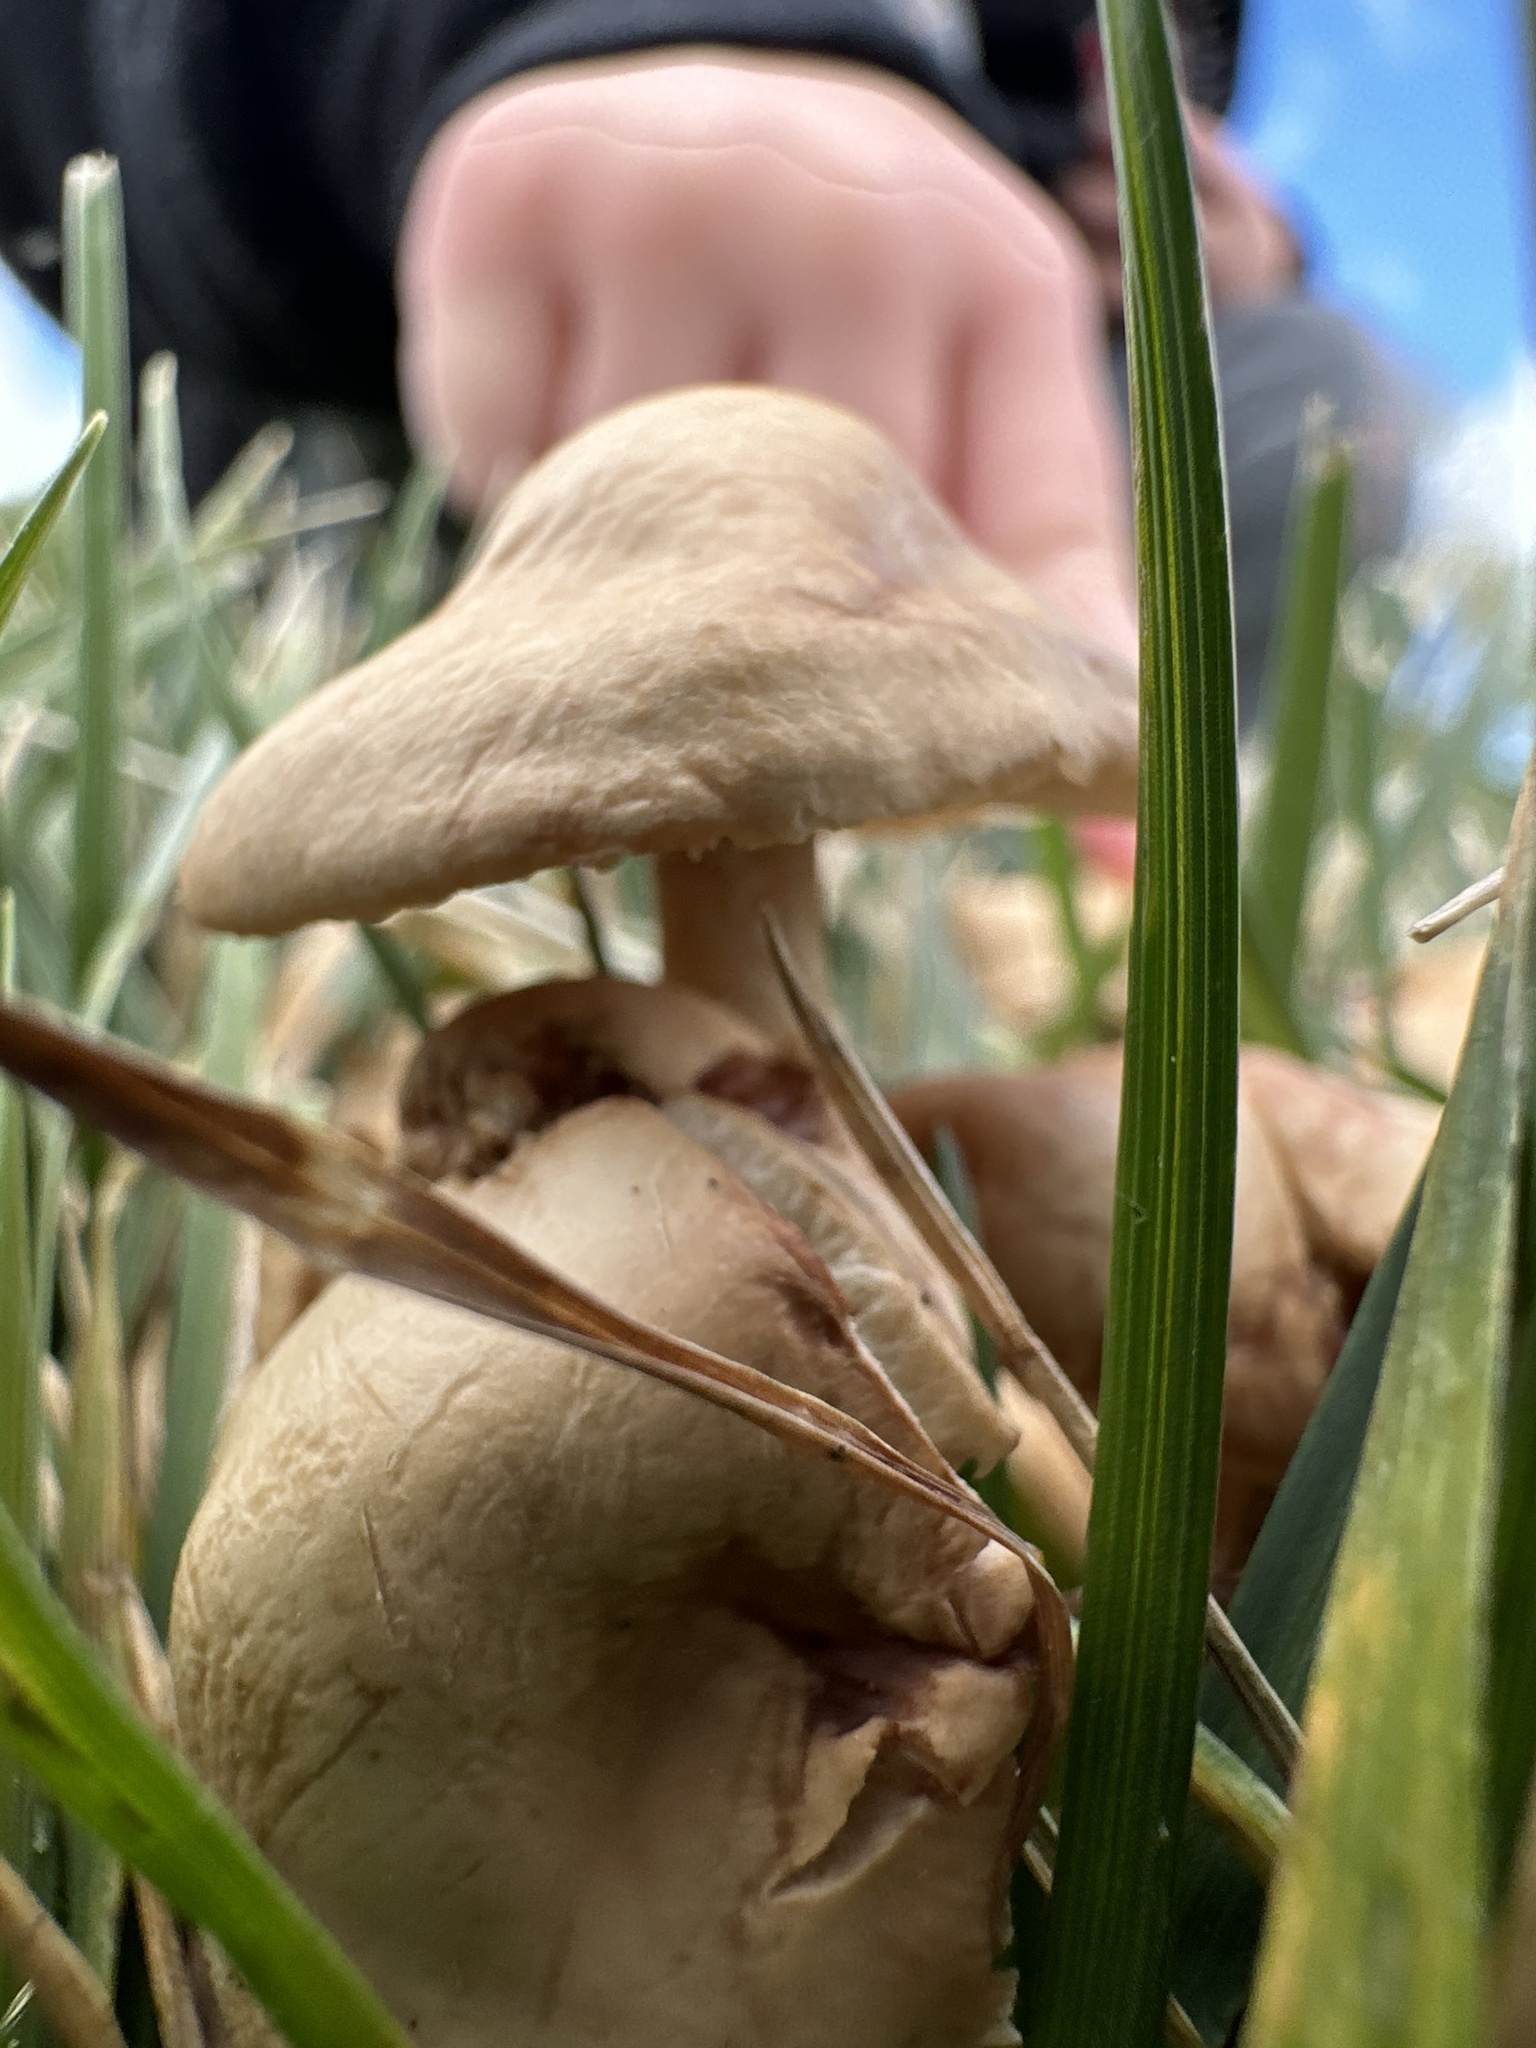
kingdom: Fungi
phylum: Basidiomycota
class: Agaricomycetes
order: Agaricales
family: Marasmiaceae
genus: Marasmius
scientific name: Marasmius oreades
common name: Fairy ring champignon
